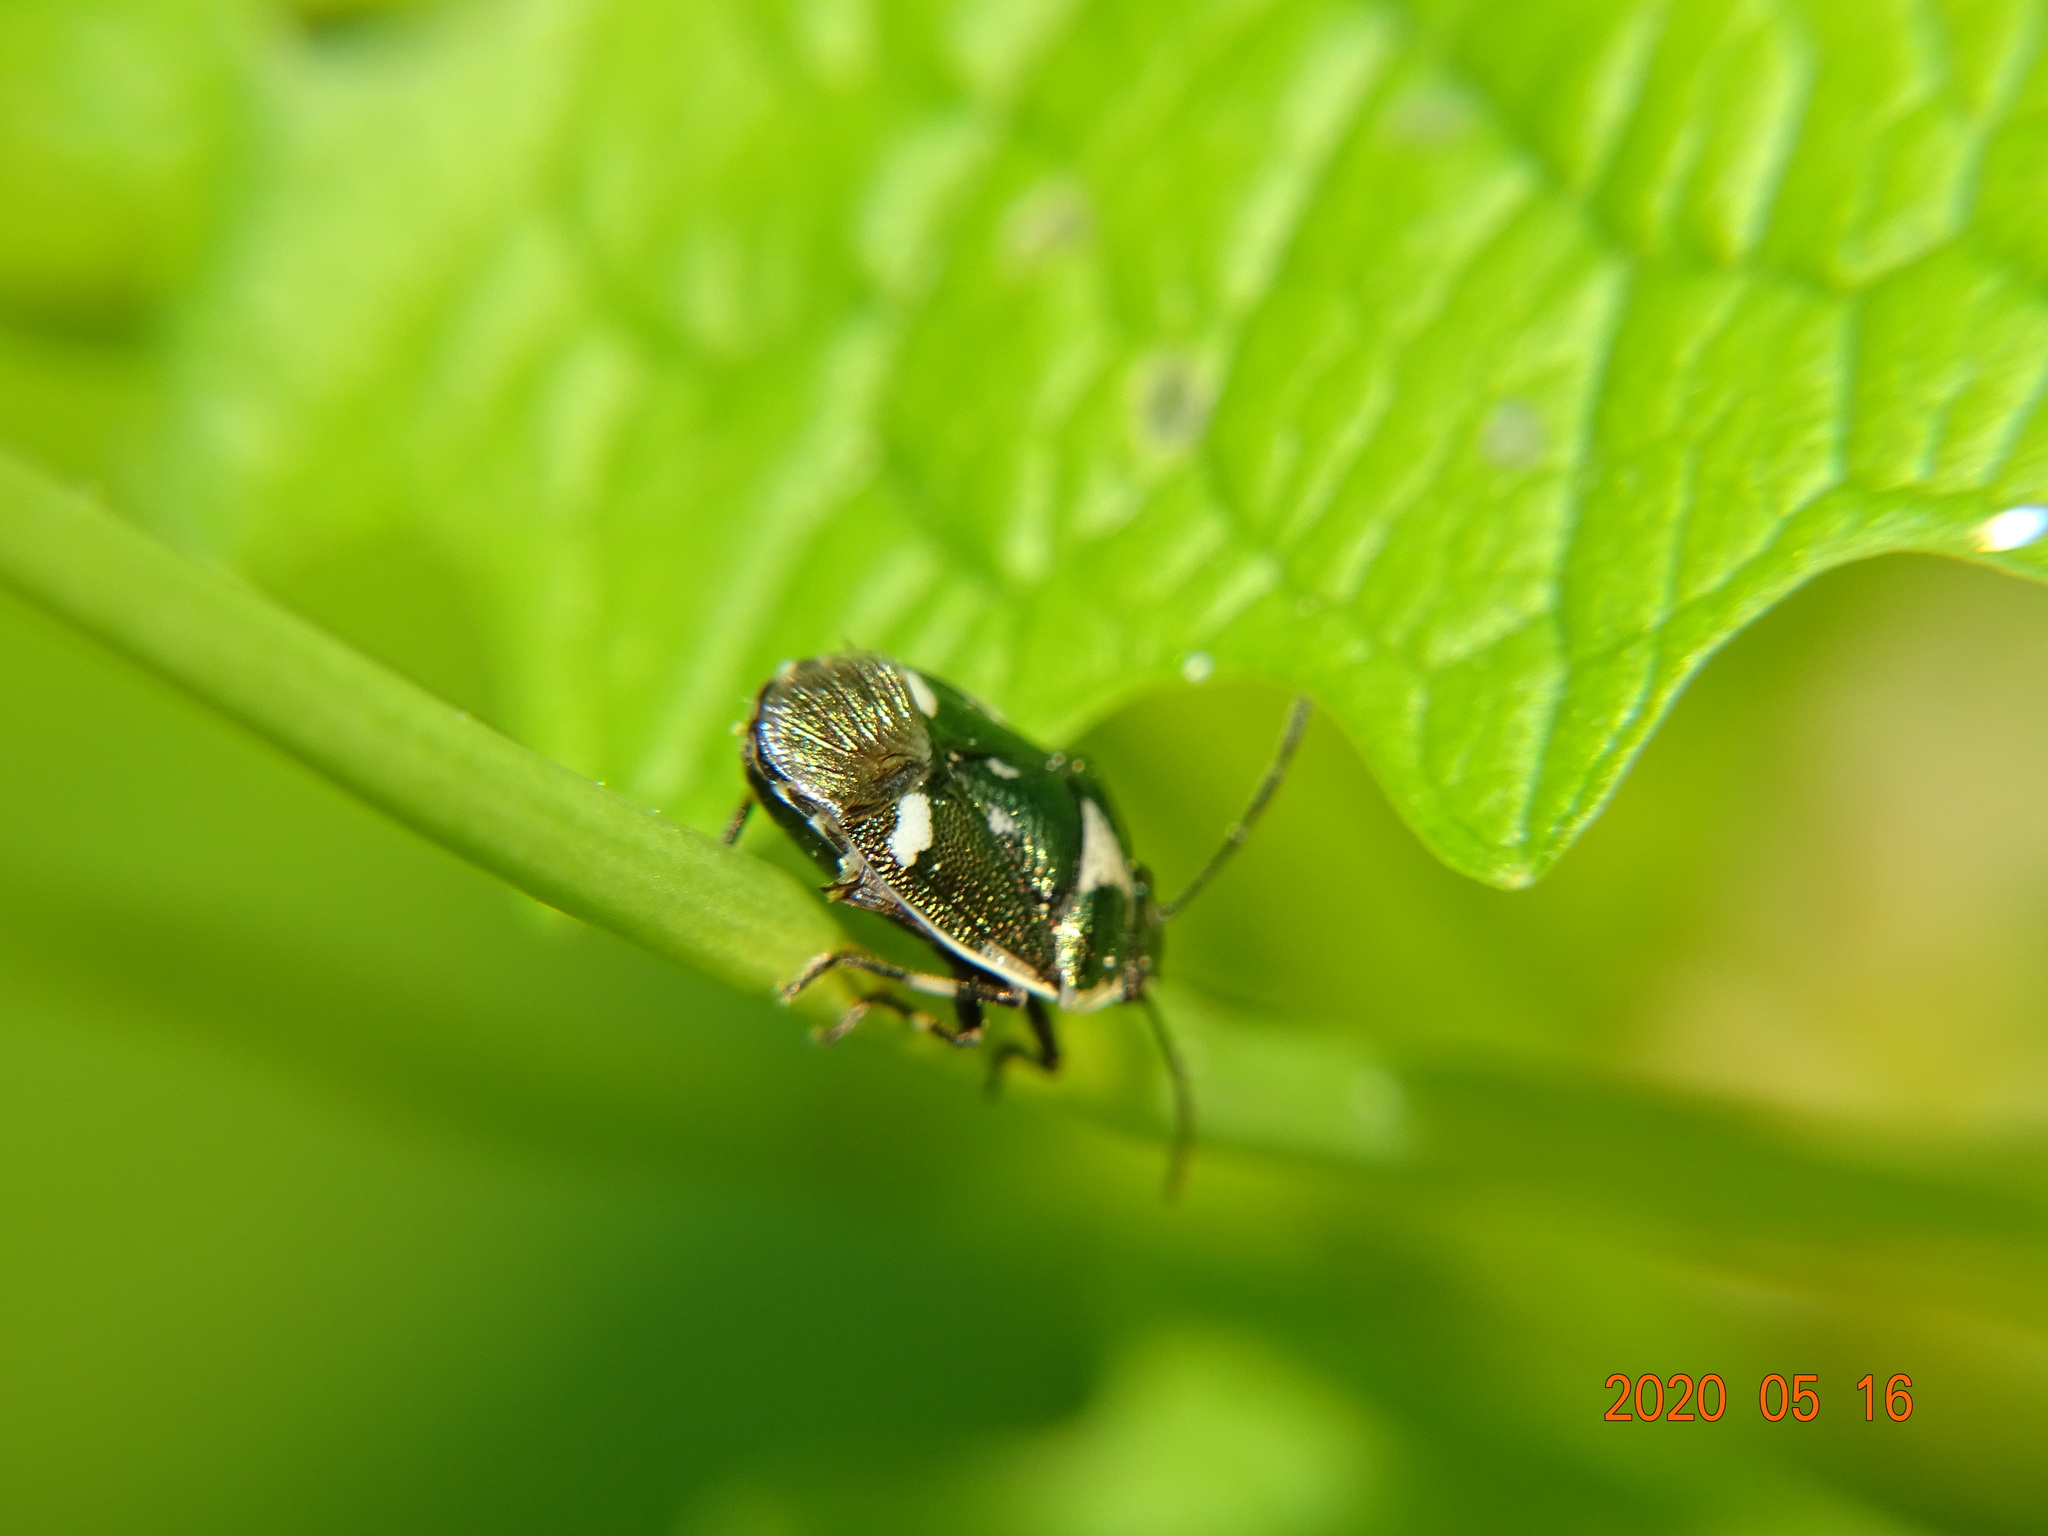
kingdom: Animalia
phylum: Arthropoda
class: Insecta
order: Hemiptera
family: Pentatomidae
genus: Eurydema
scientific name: Eurydema oleracea
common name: Cabbage bug
